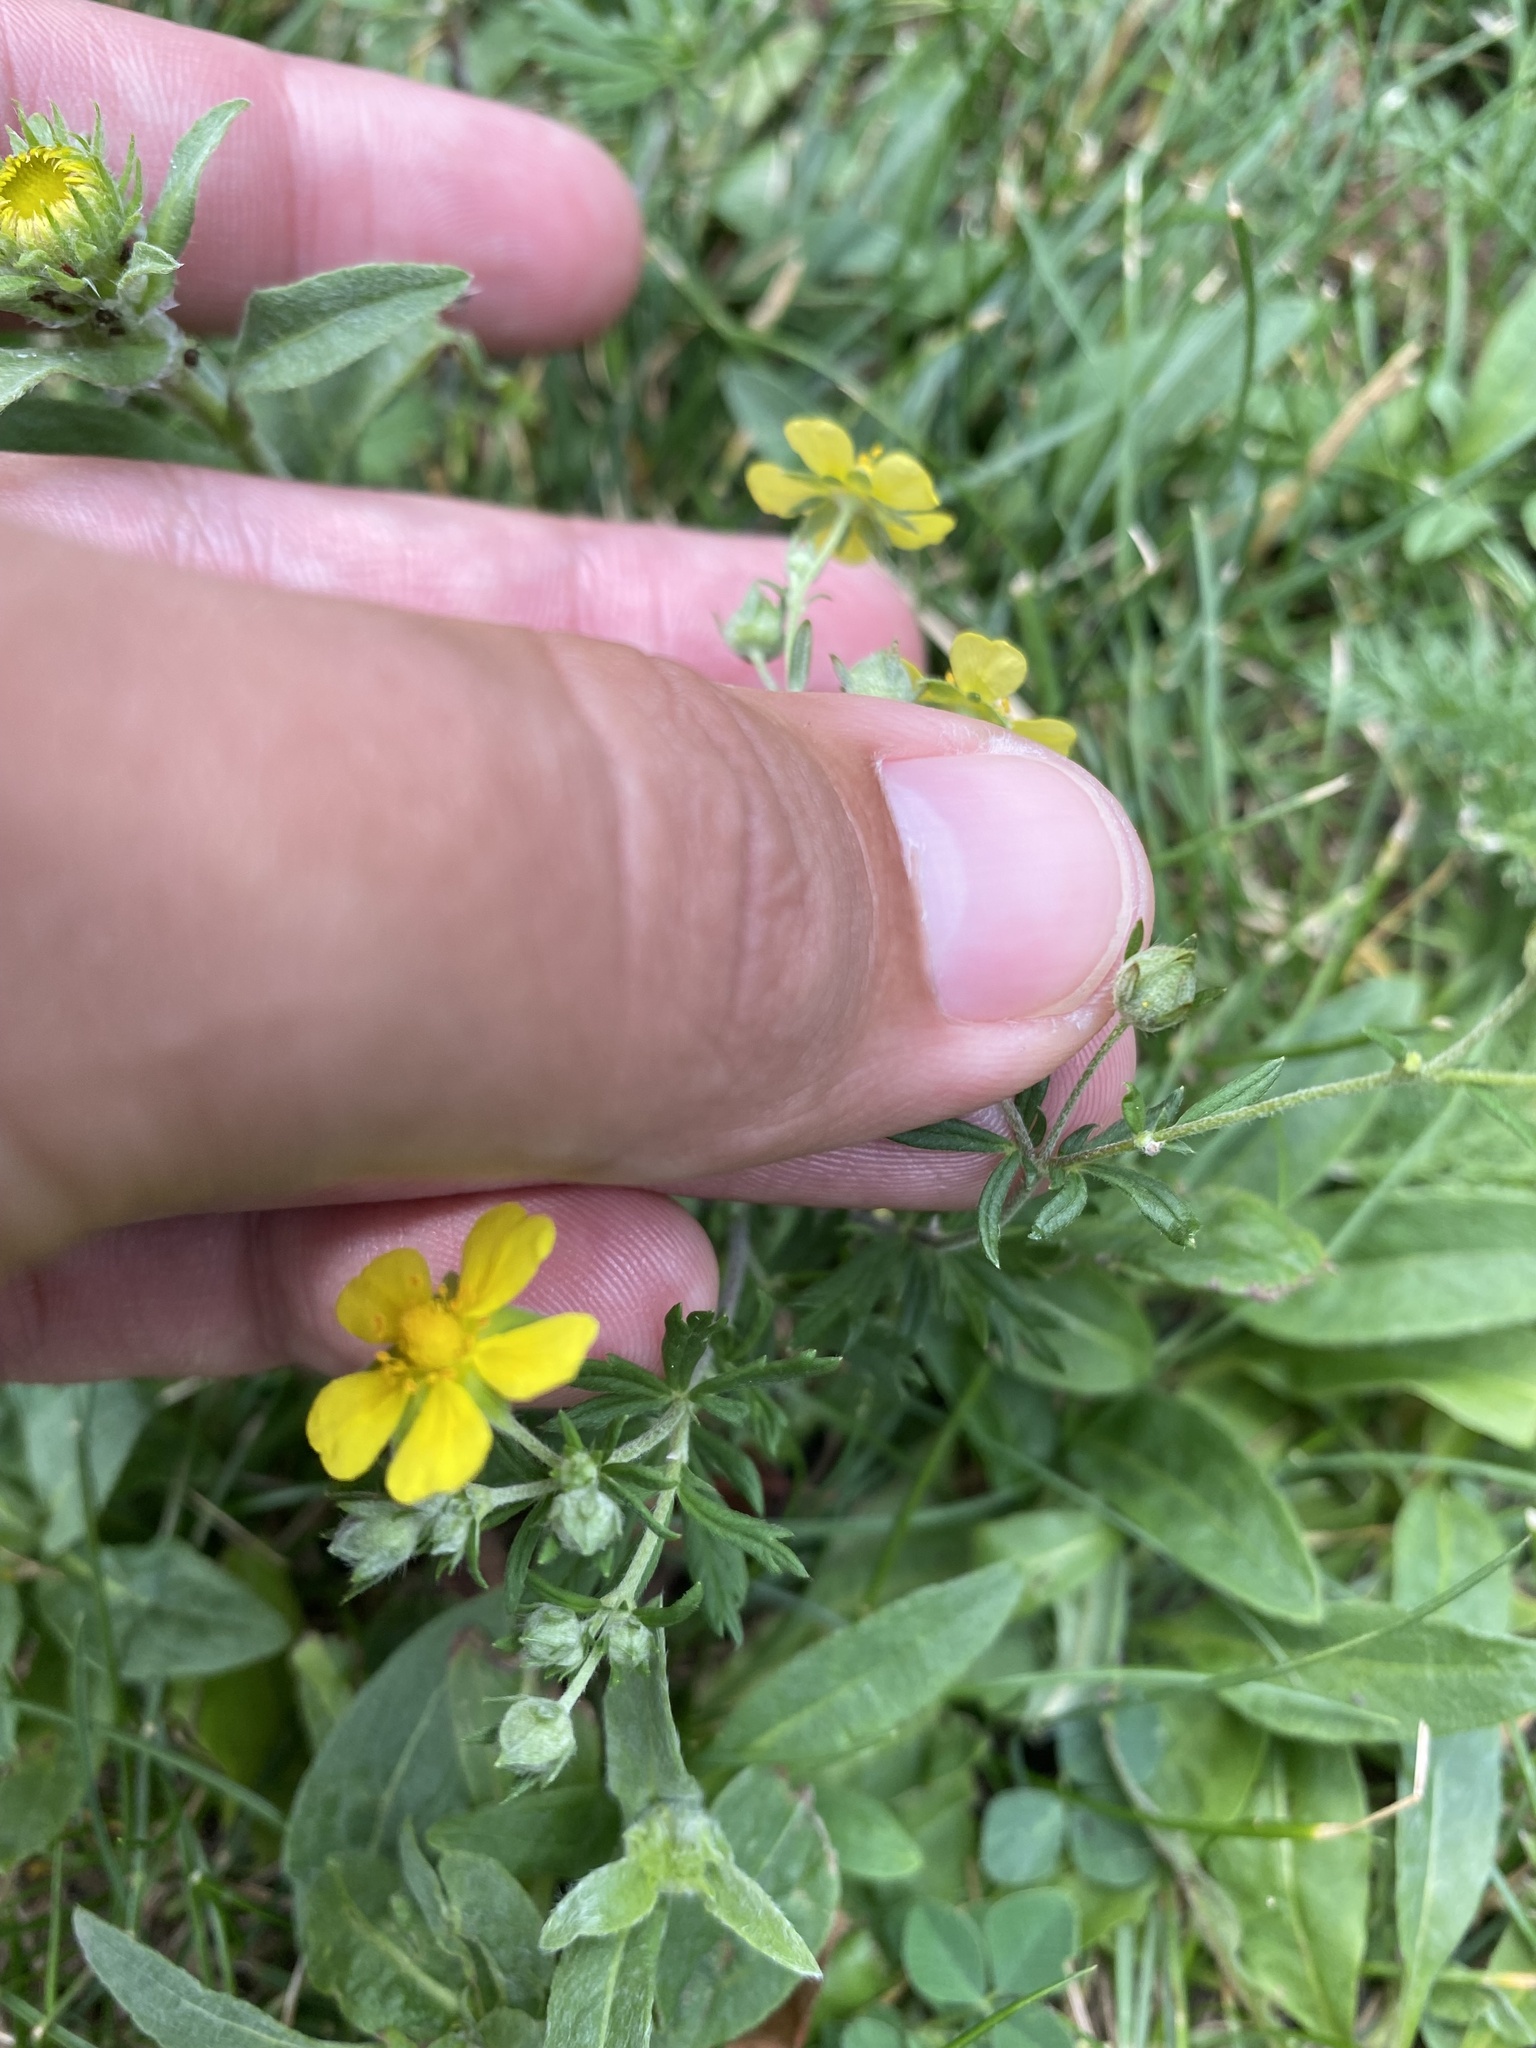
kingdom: Plantae
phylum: Tracheophyta
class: Magnoliopsida
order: Rosales
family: Rosaceae
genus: Potentilla
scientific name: Potentilla argentea
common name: Hoary cinquefoil
